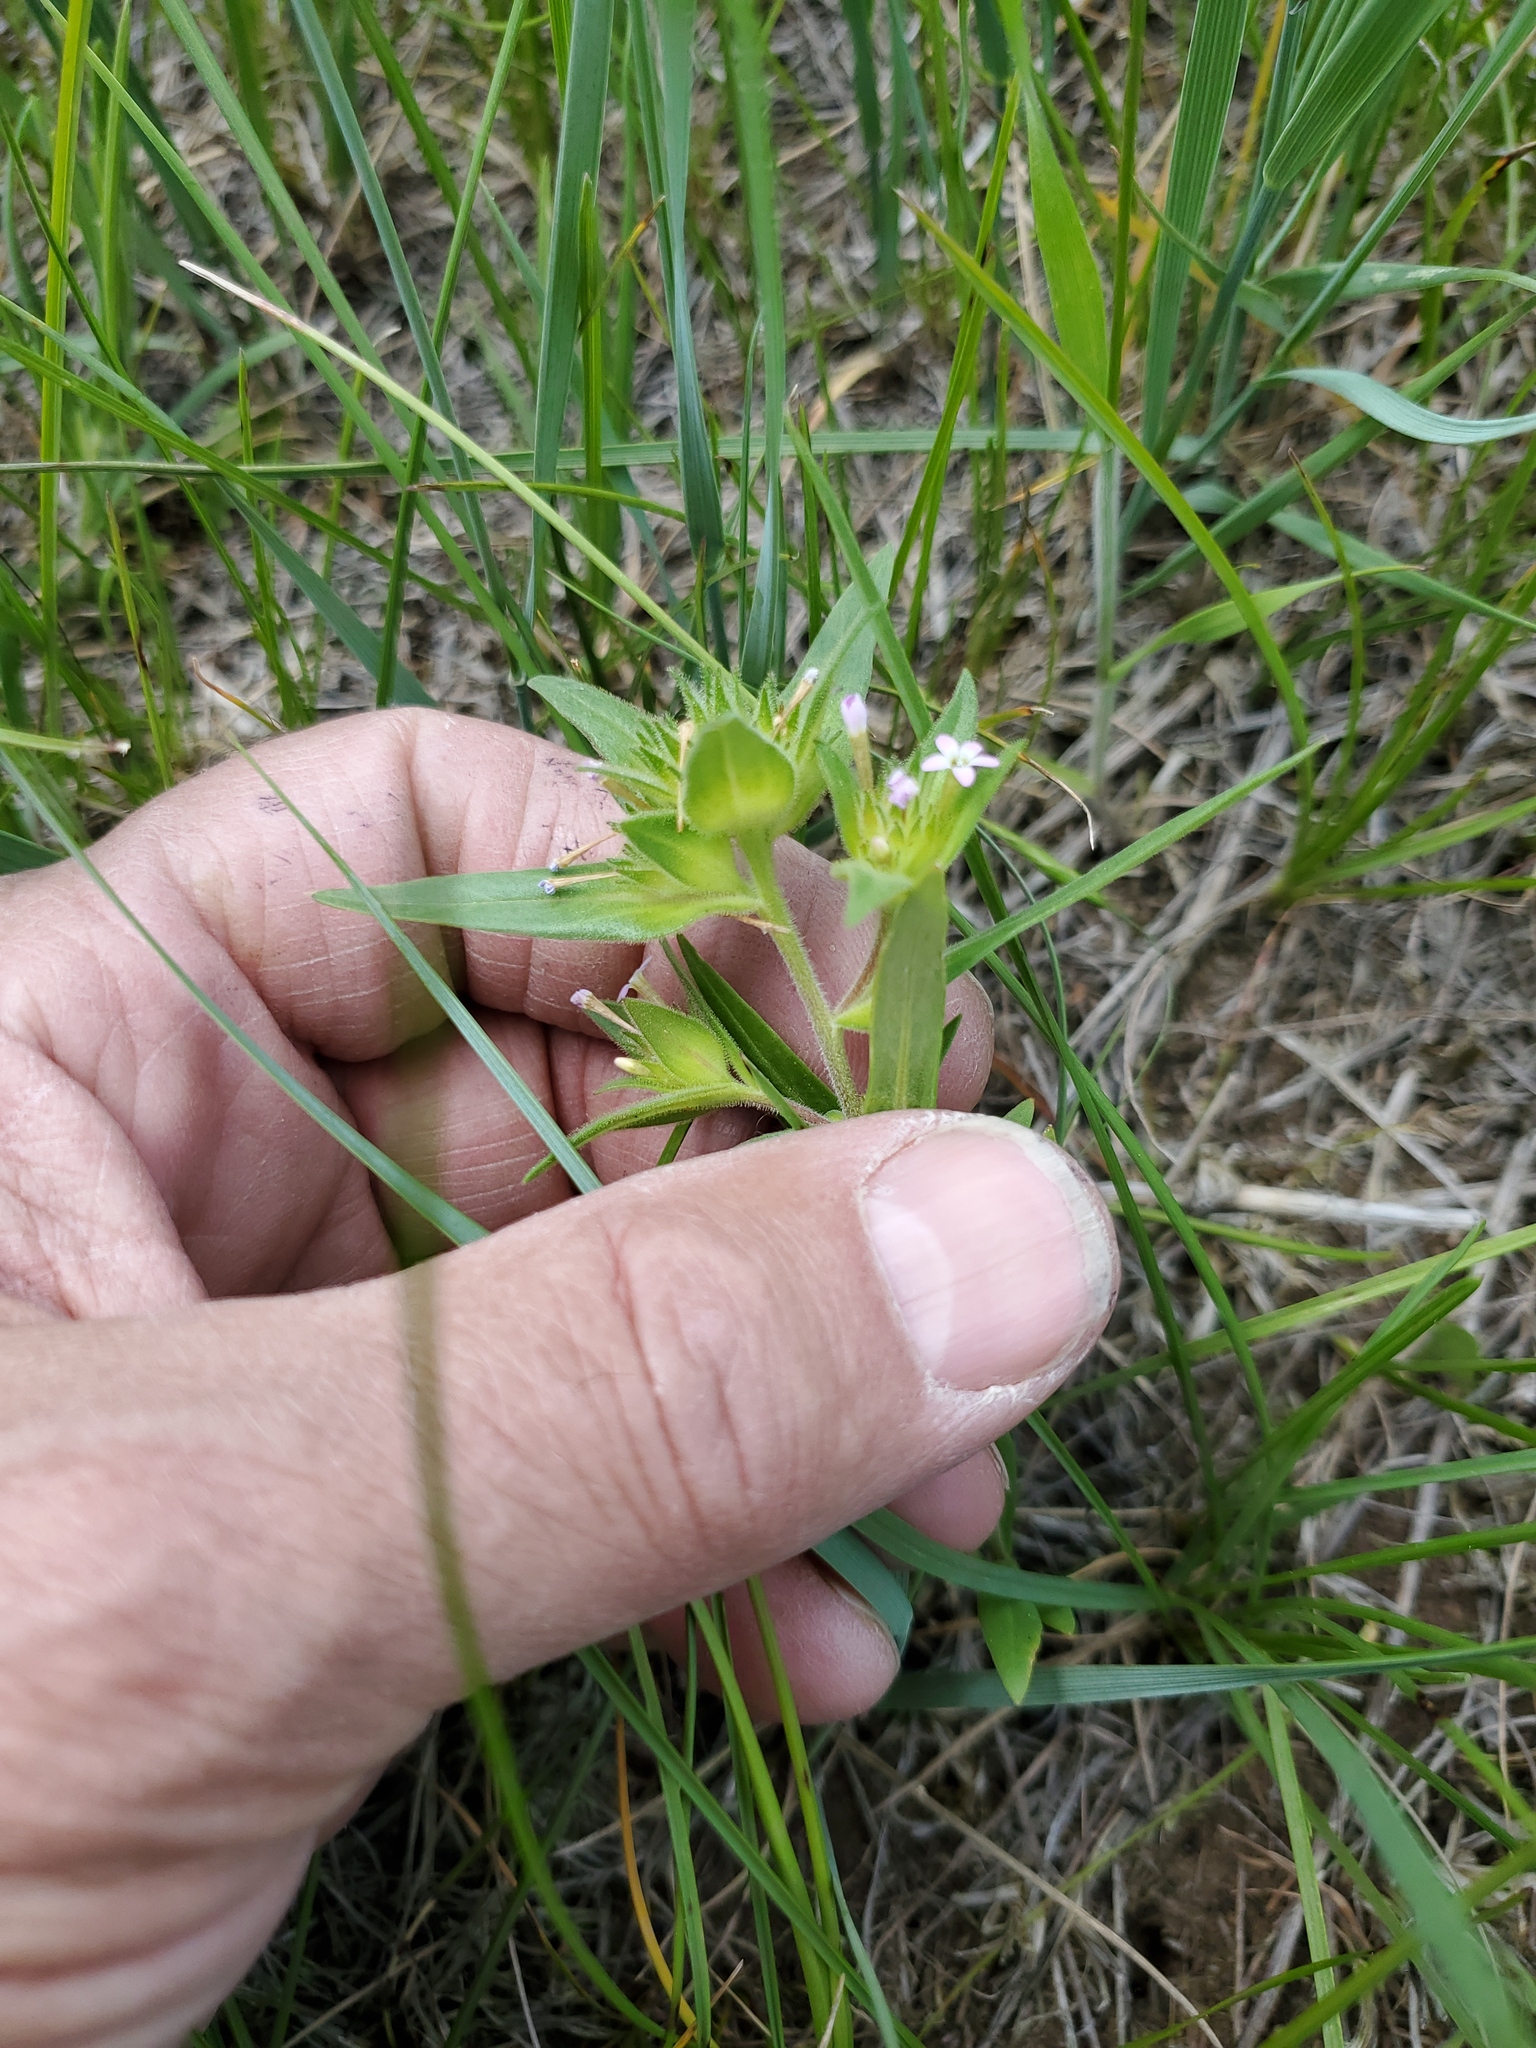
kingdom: Plantae
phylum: Tracheophyta
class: Magnoliopsida
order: Ericales
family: Polemoniaceae
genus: Collomia
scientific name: Collomia linearis
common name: Tiny trumpet
